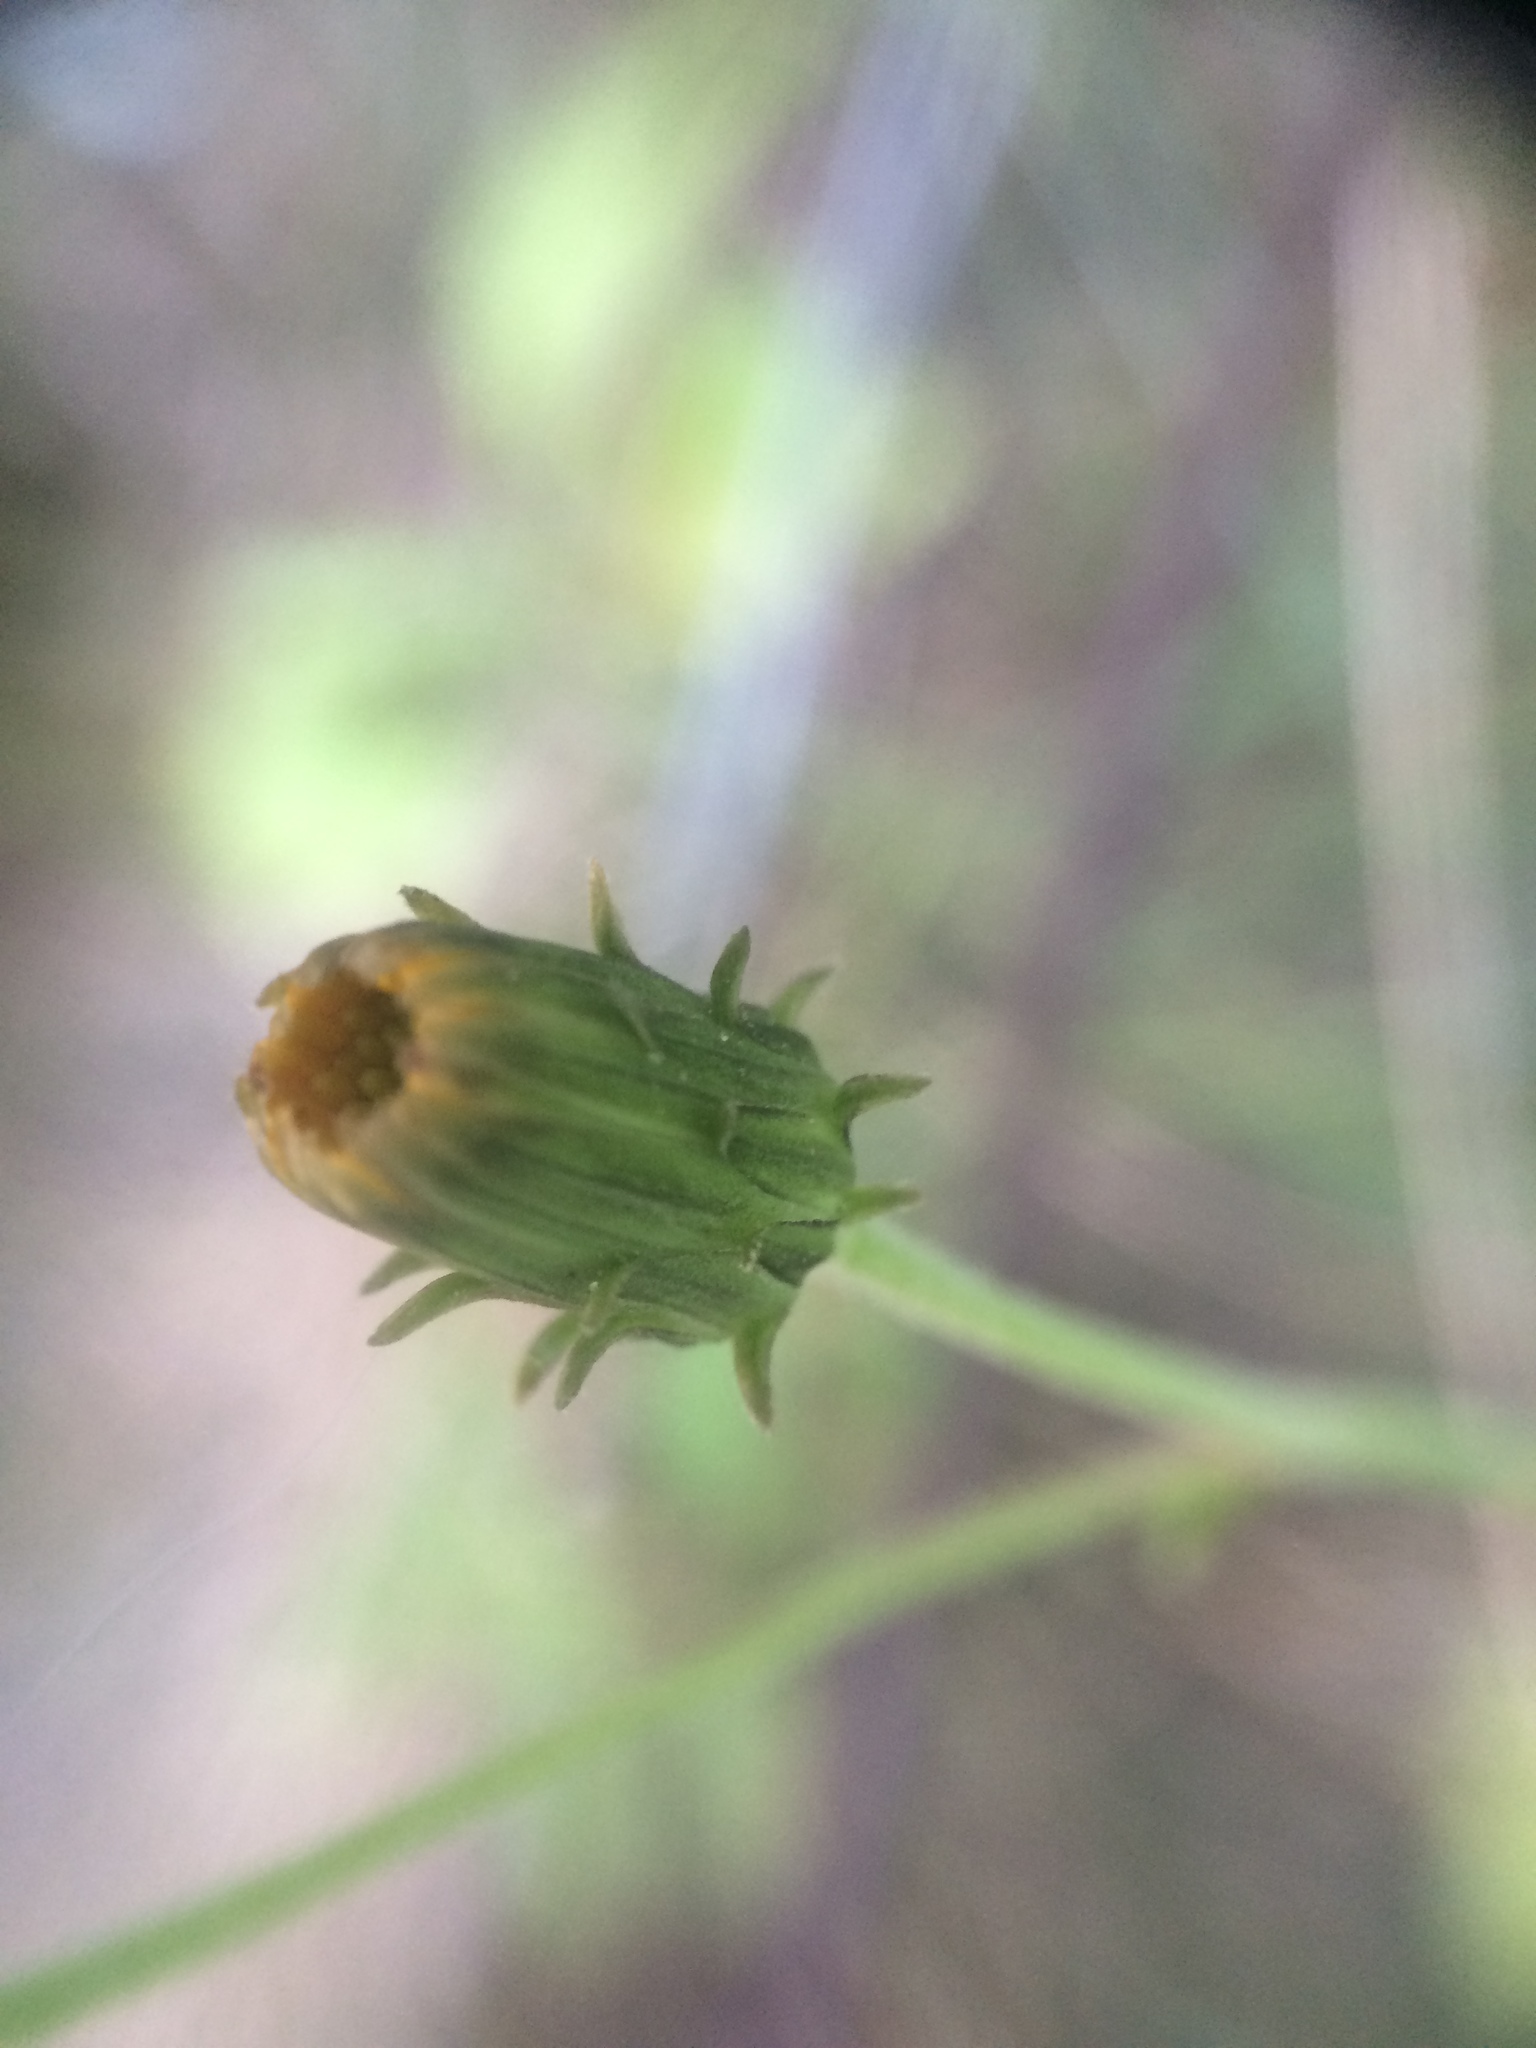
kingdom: Plantae
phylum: Tracheophyta
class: Magnoliopsida
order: Asterales
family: Asteraceae
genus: Hieracium
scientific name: Hieracium umbellatum
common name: Northern hawkweed
